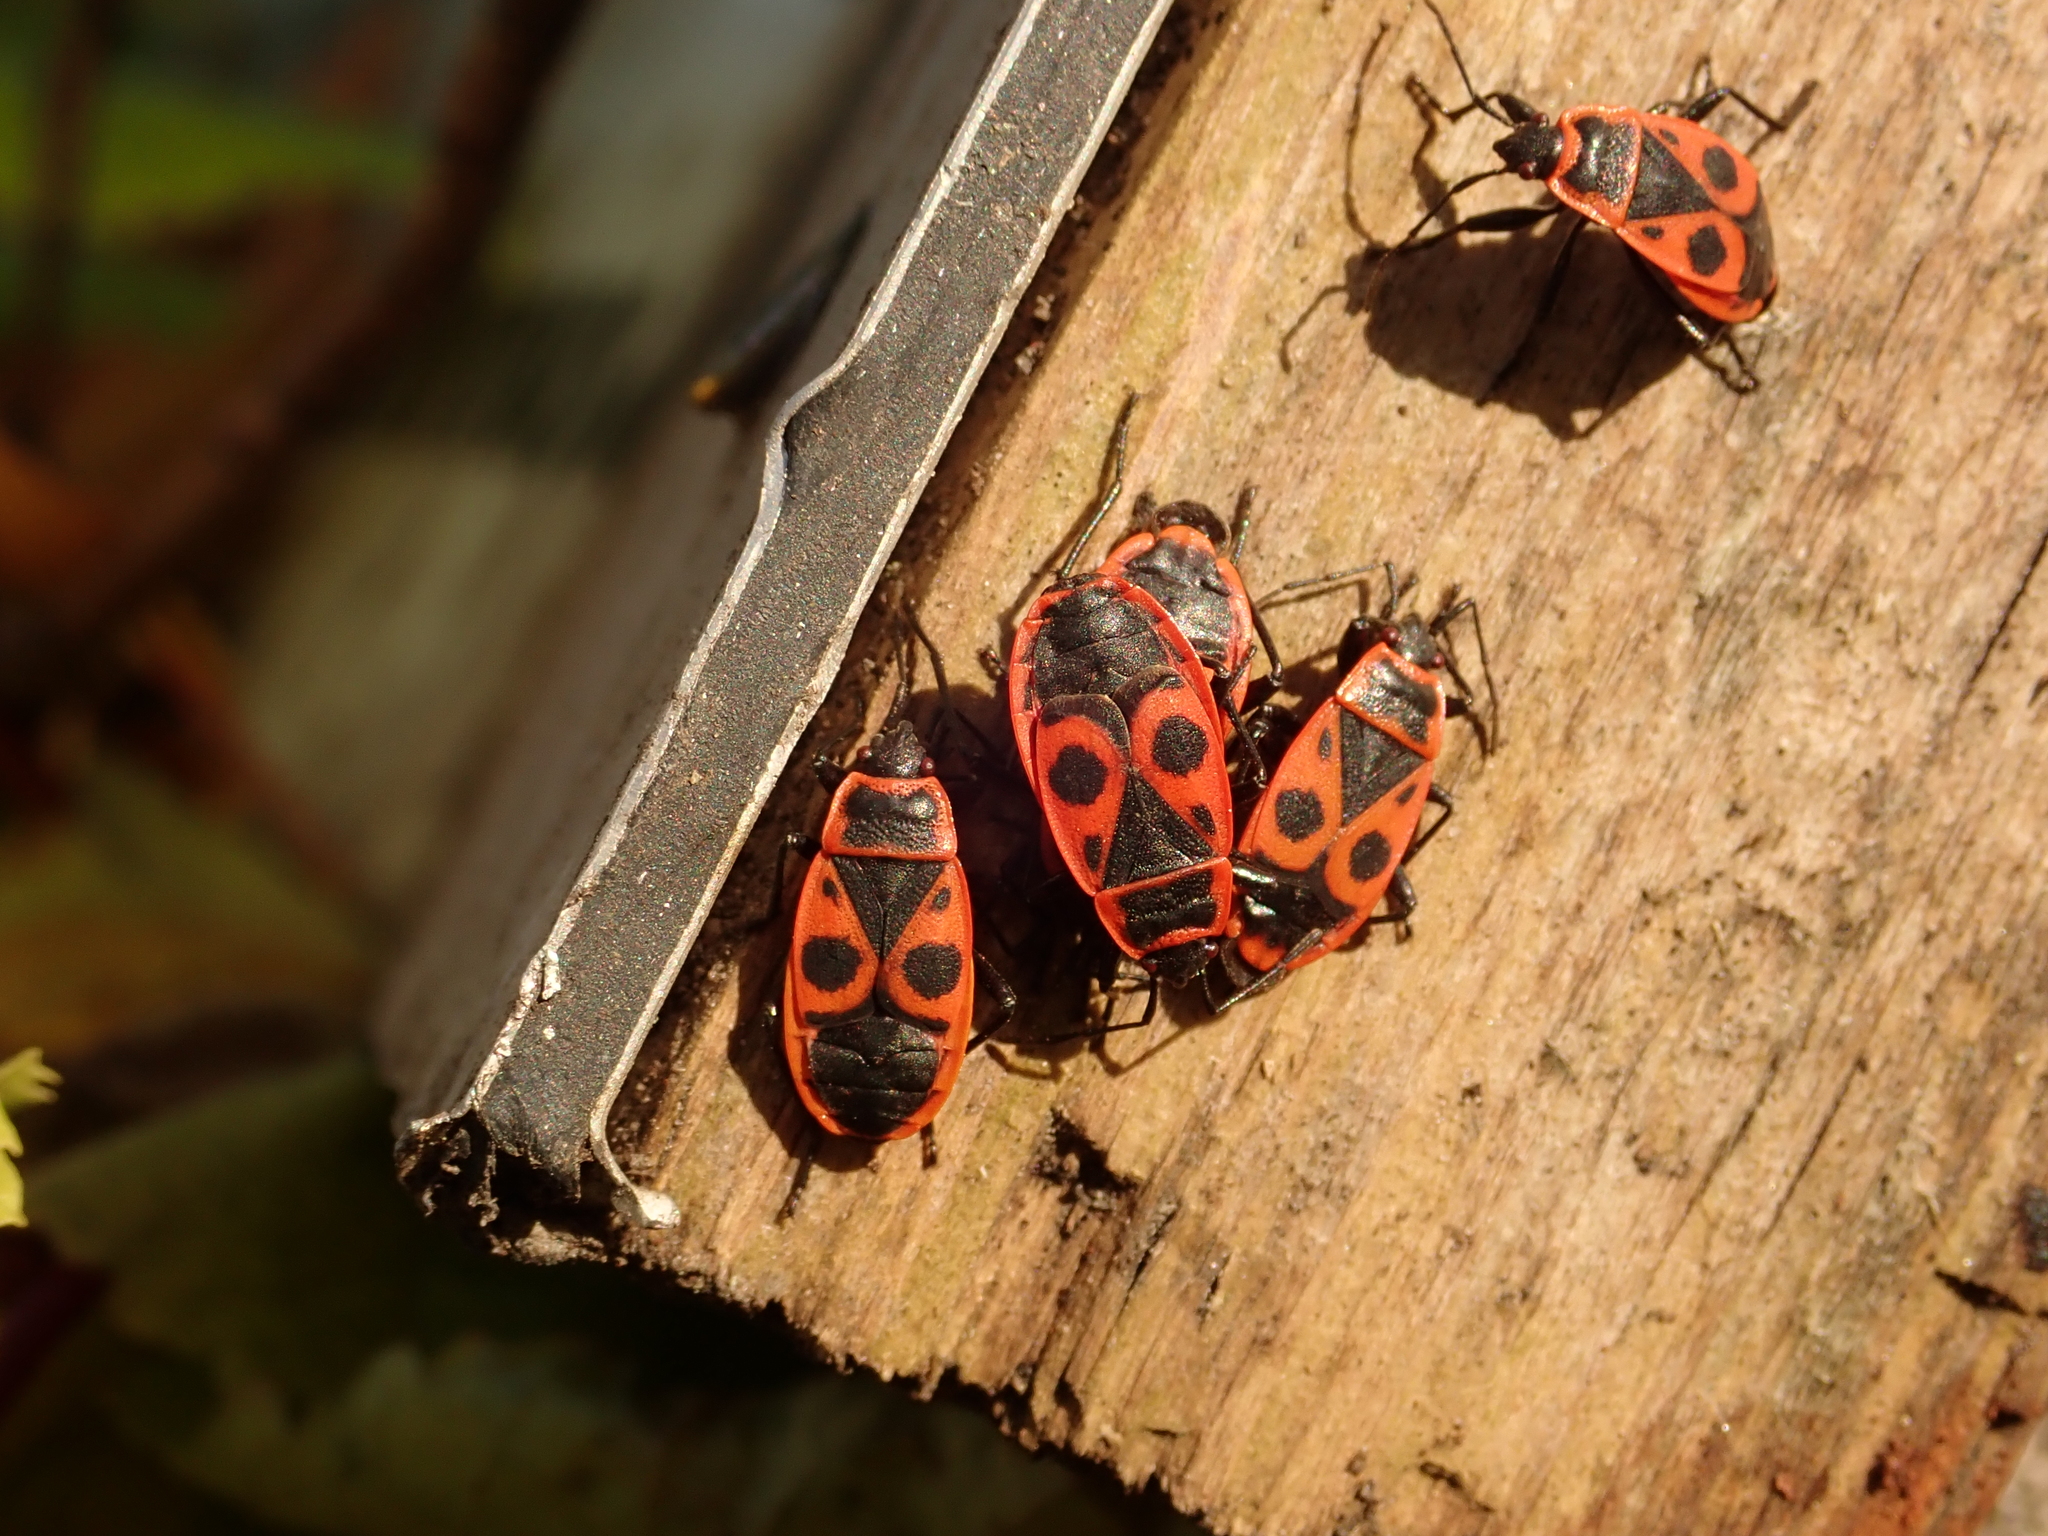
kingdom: Animalia
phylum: Arthropoda
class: Insecta
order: Hemiptera
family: Pyrrhocoridae
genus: Pyrrhocoris
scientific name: Pyrrhocoris apterus
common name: Firebug
